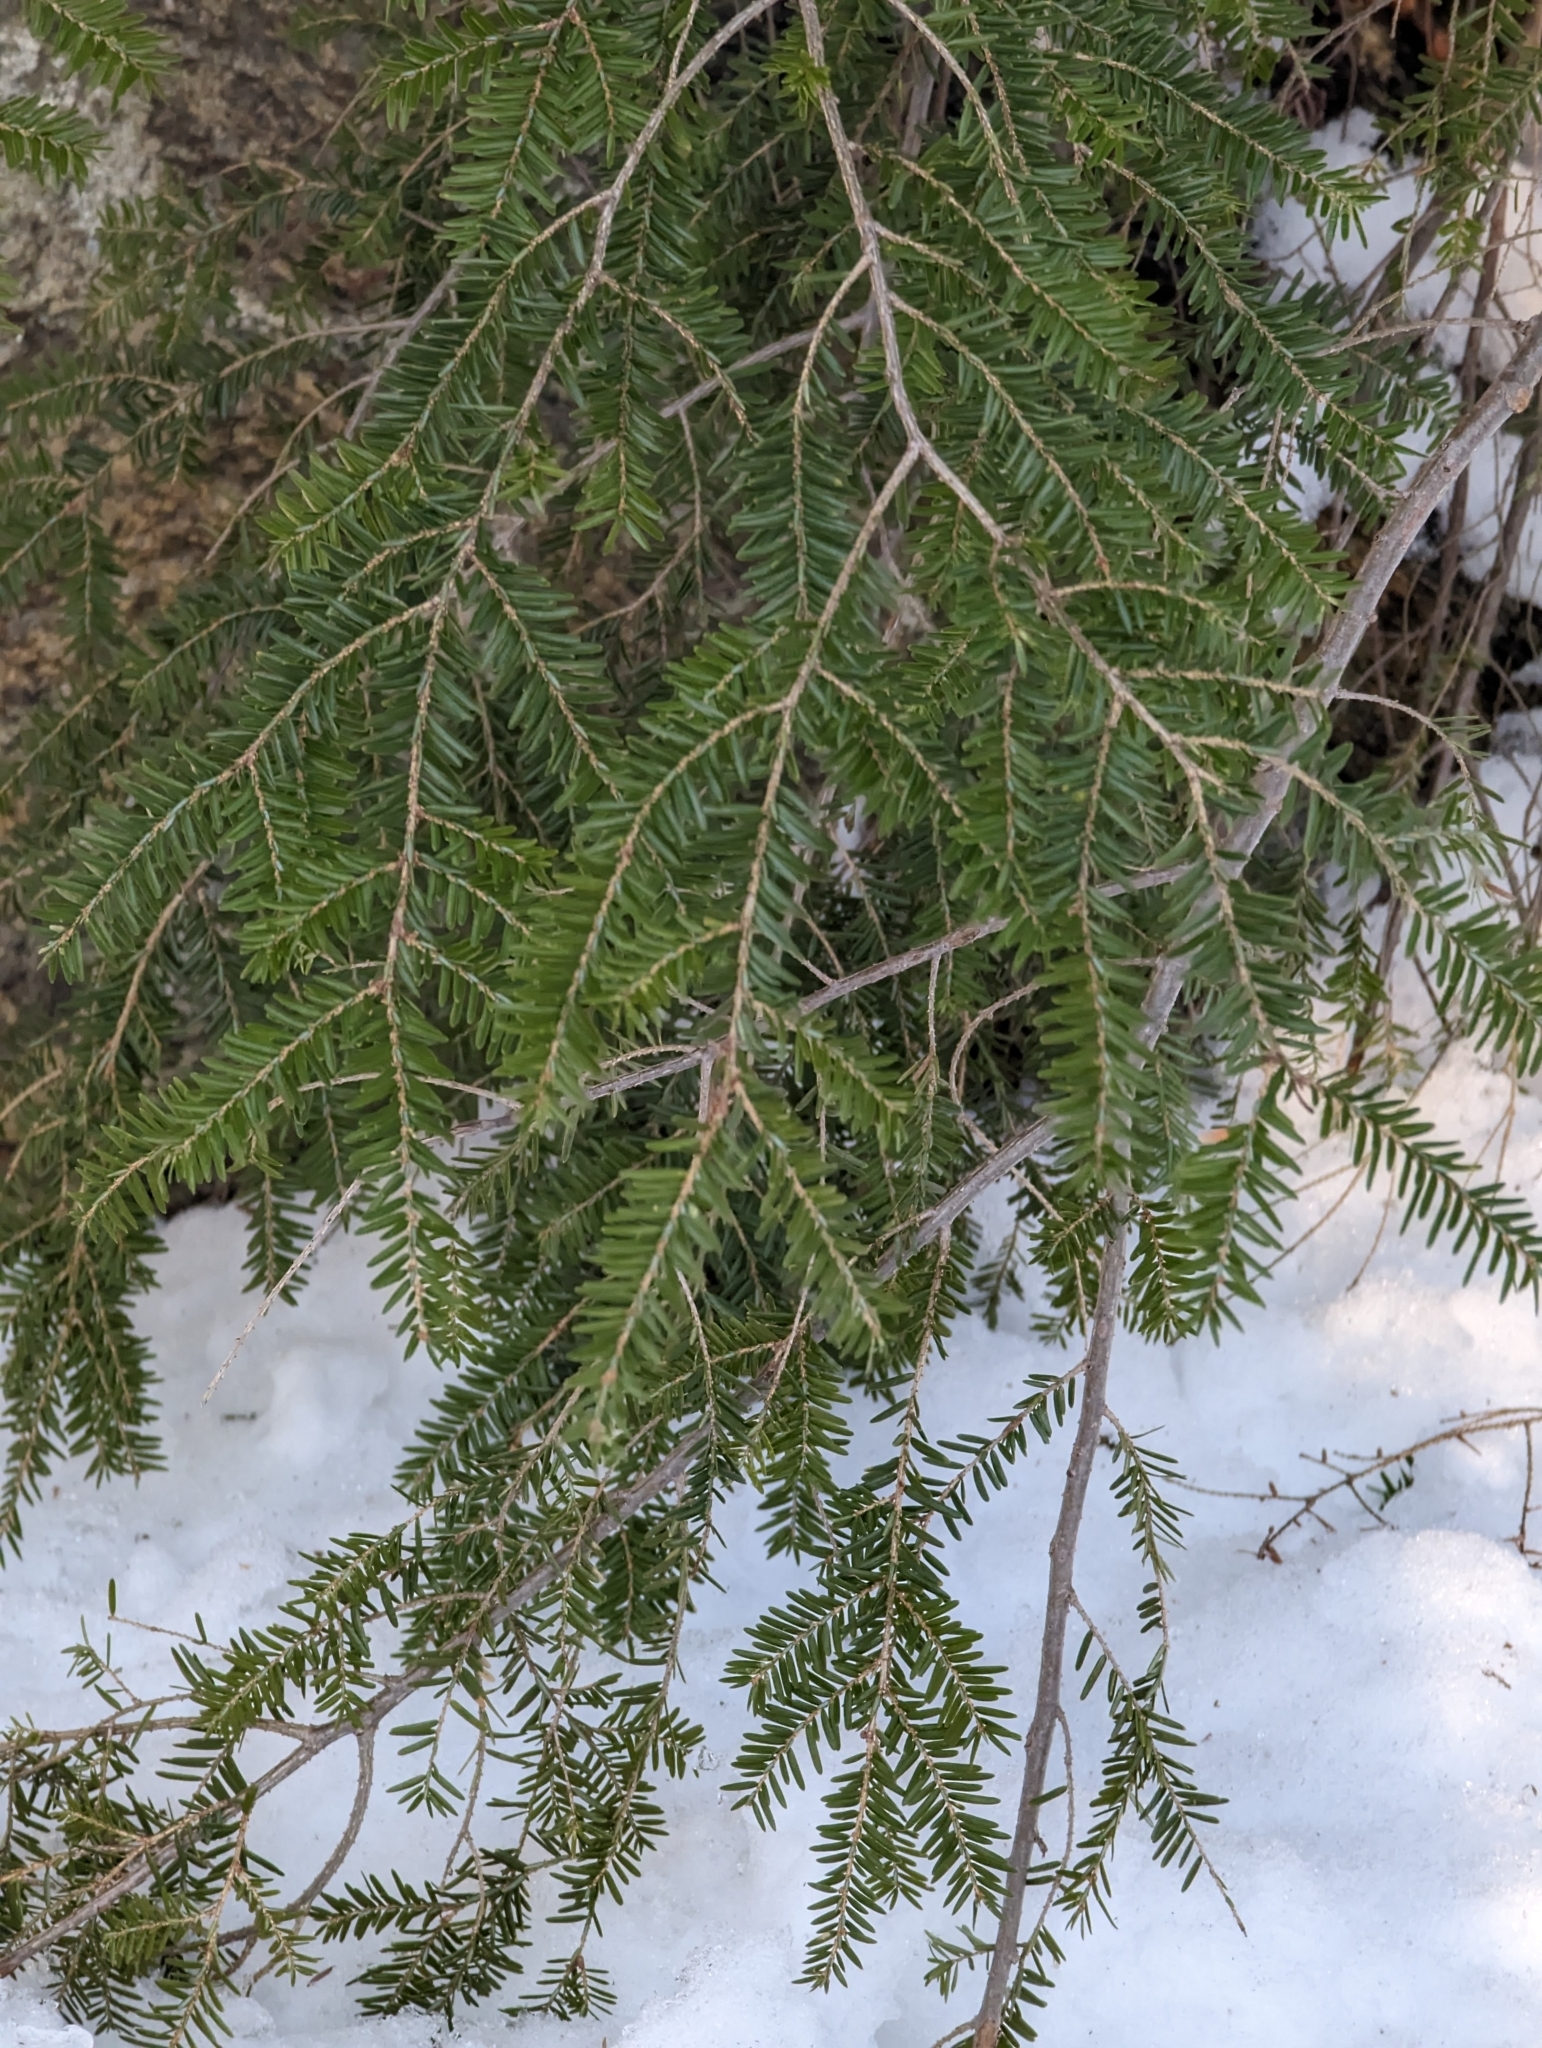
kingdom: Plantae
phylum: Tracheophyta
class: Pinopsida
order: Pinales
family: Pinaceae
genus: Tsuga
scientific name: Tsuga canadensis
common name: Eastern hemlock
